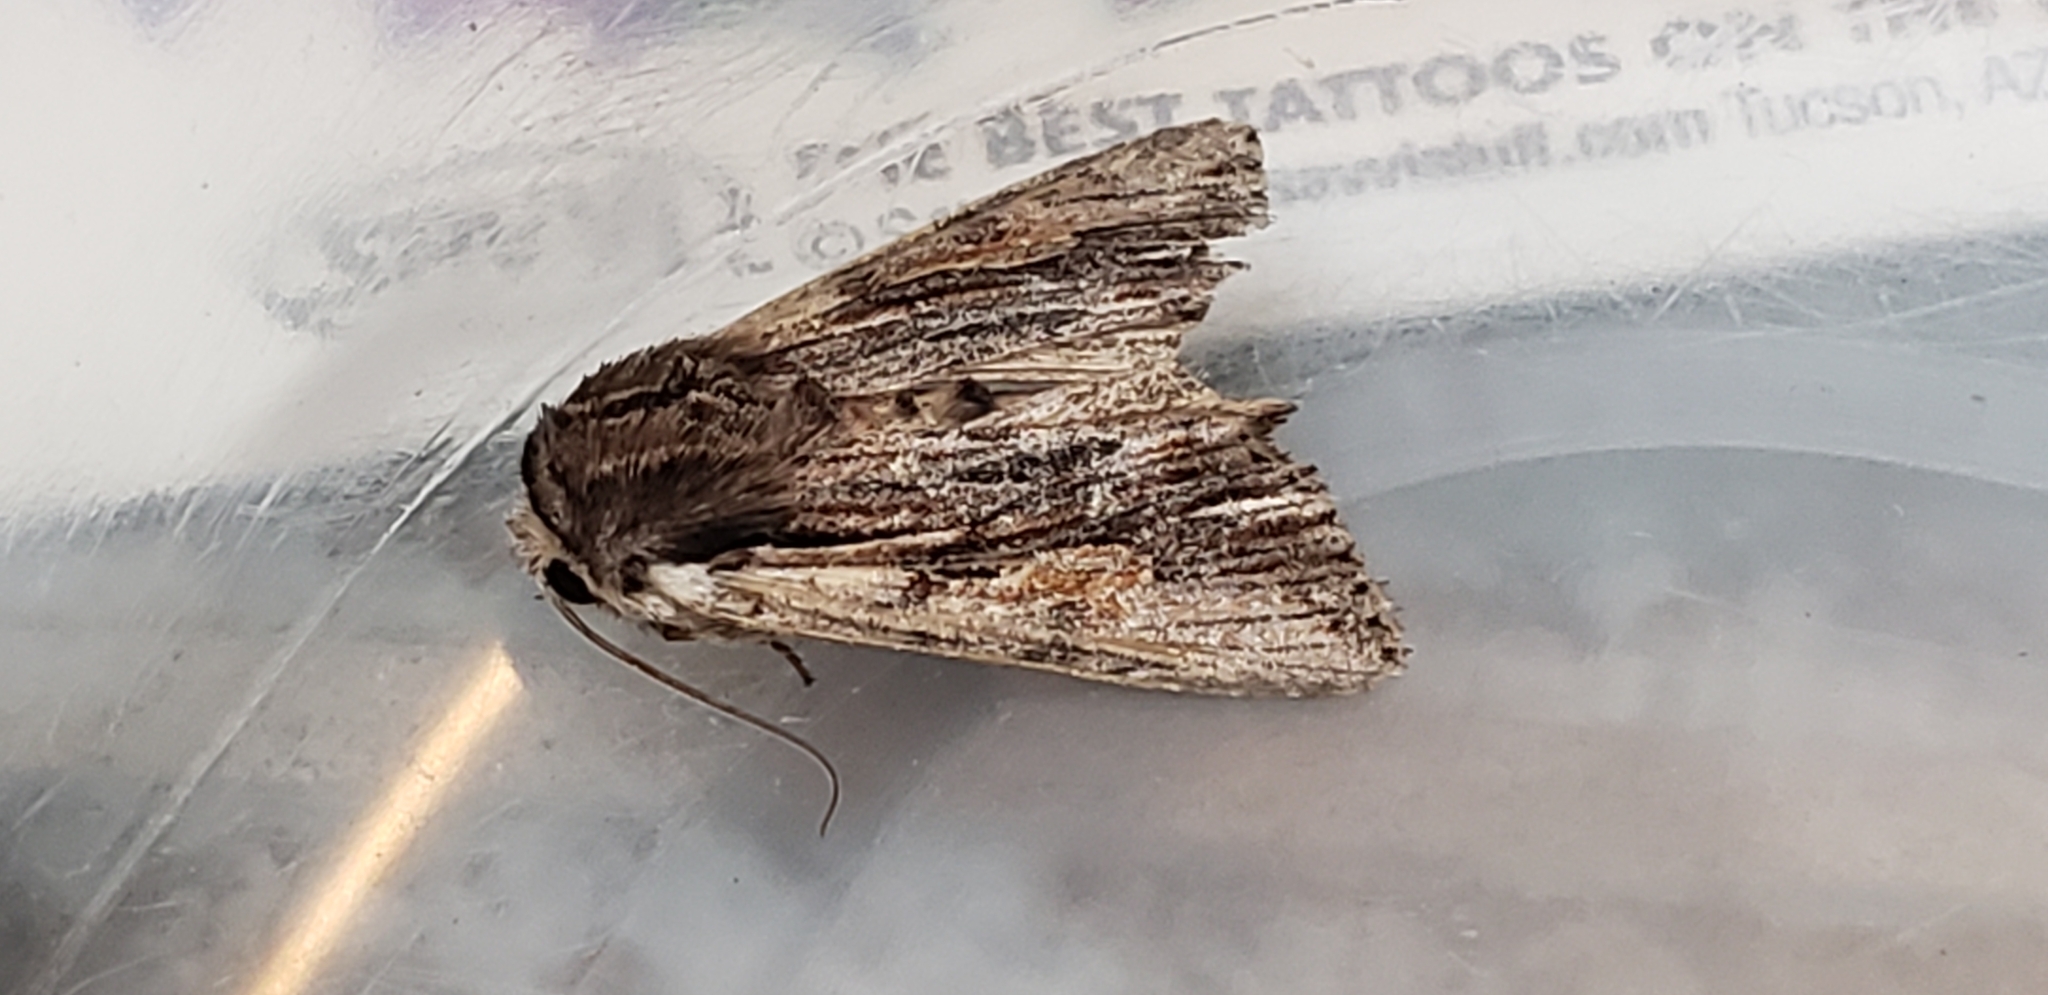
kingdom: Animalia
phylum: Arthropoda
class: Insecta
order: Lepidoptera
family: Noctuidae
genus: Achatia
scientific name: Achatia evicta
